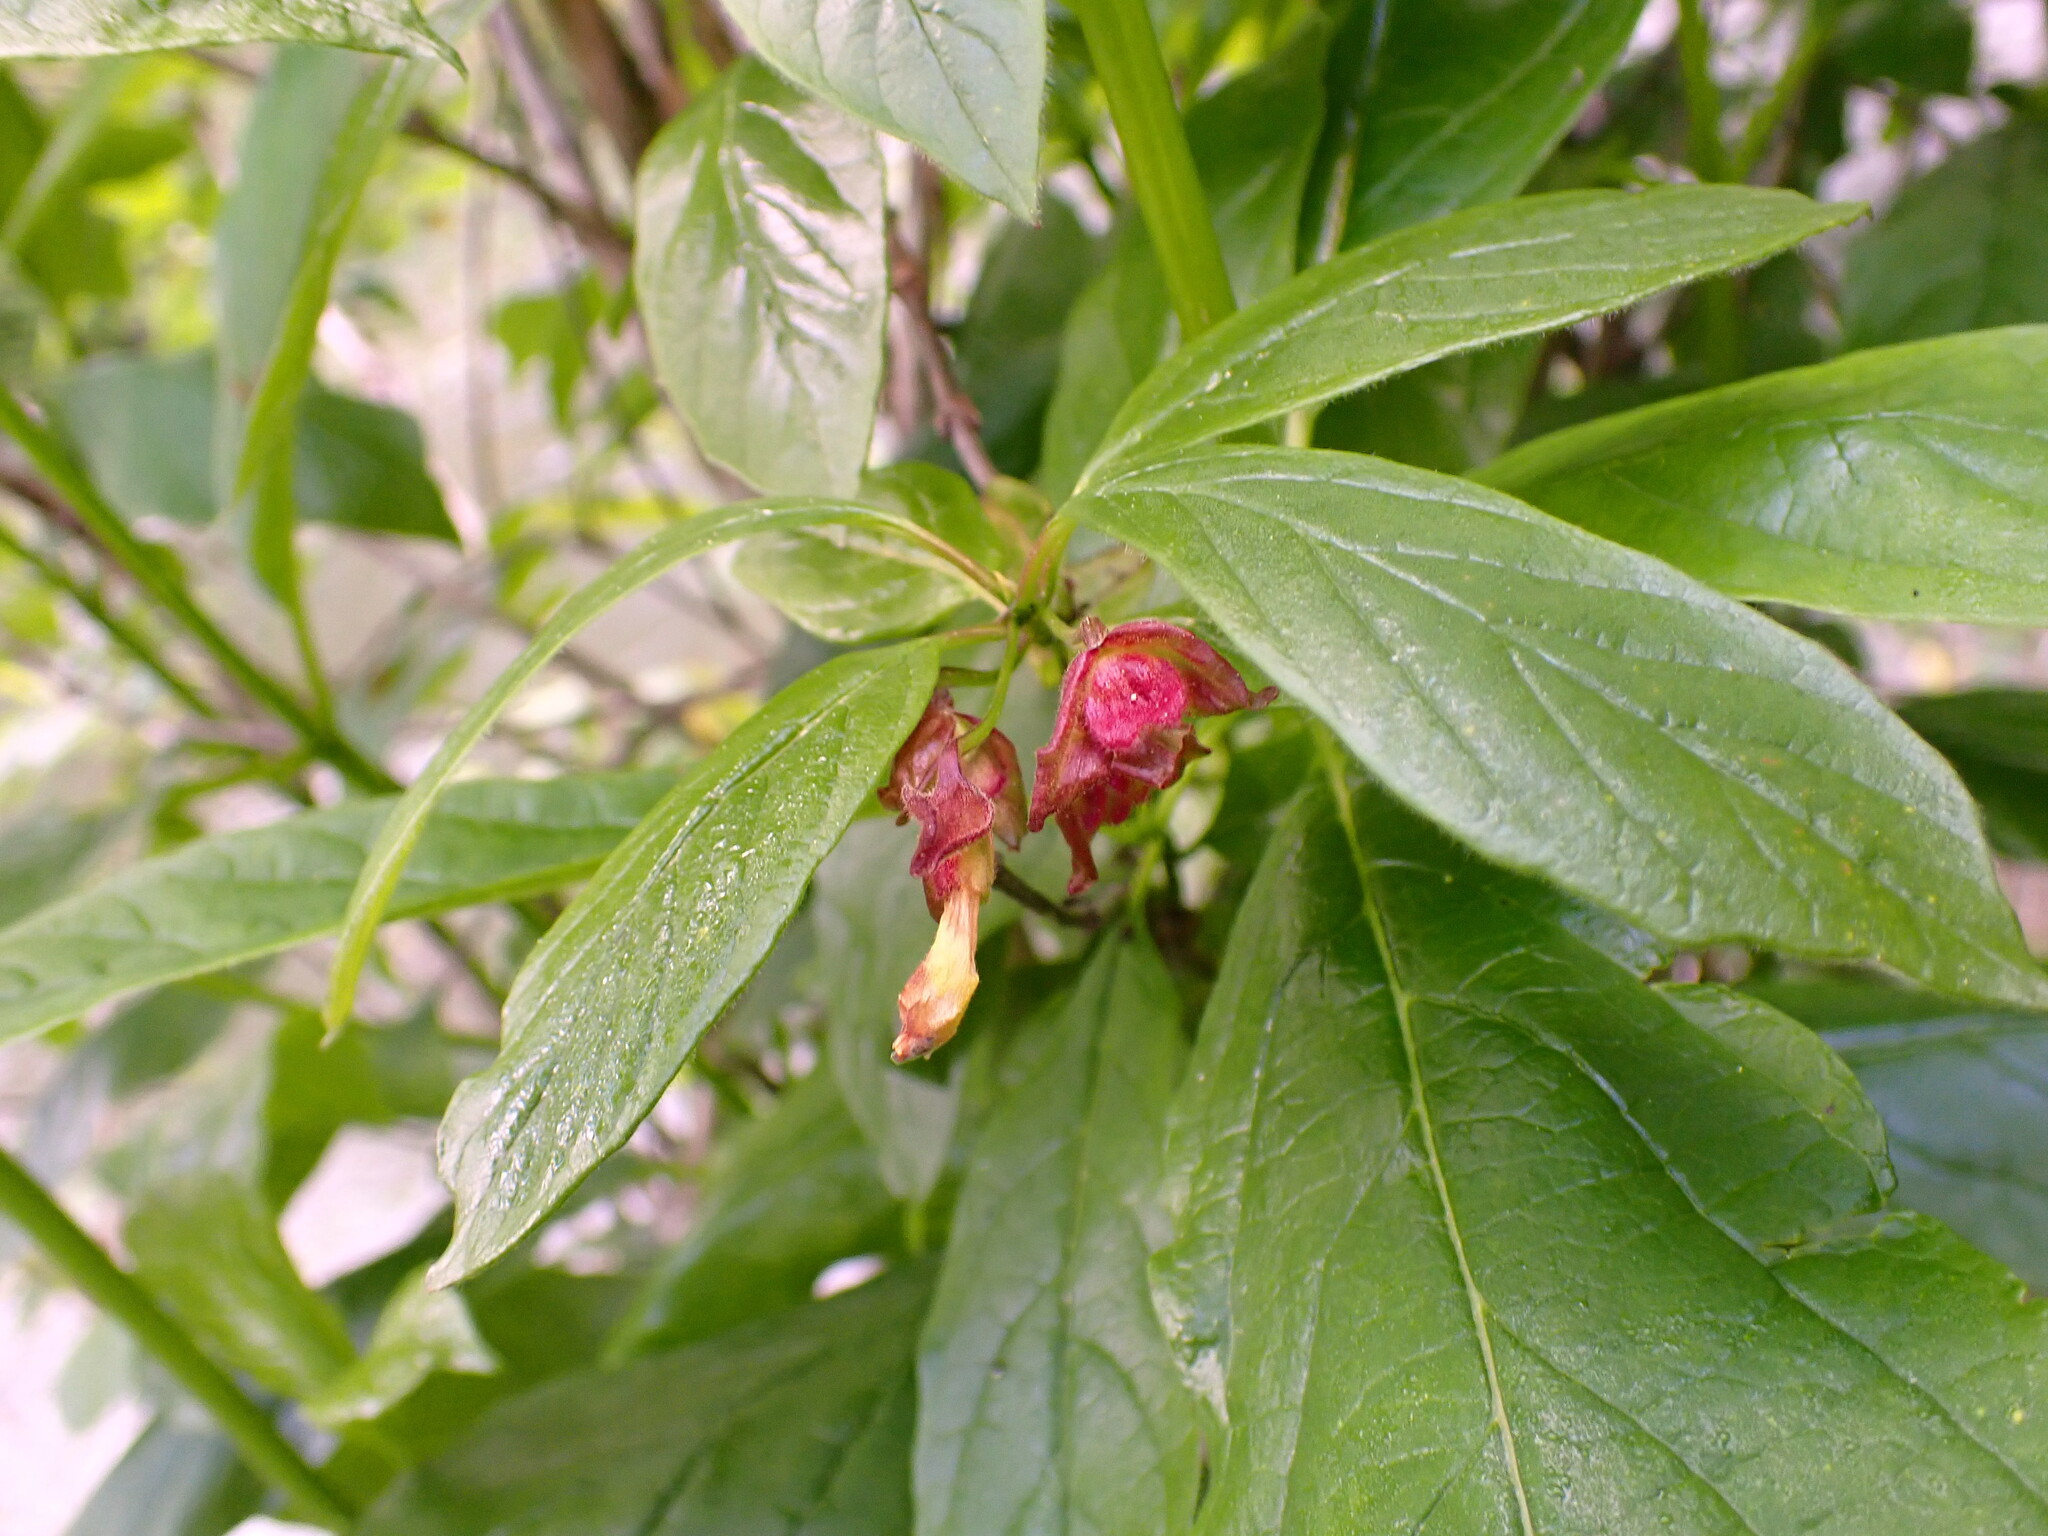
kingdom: Plantae
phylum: Tracheophyta
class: Magnoliopsida
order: Dipsacales
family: Caprifoliaceae
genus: Lonicera
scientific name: Lonicera involucrata
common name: Californian honeysuckle
